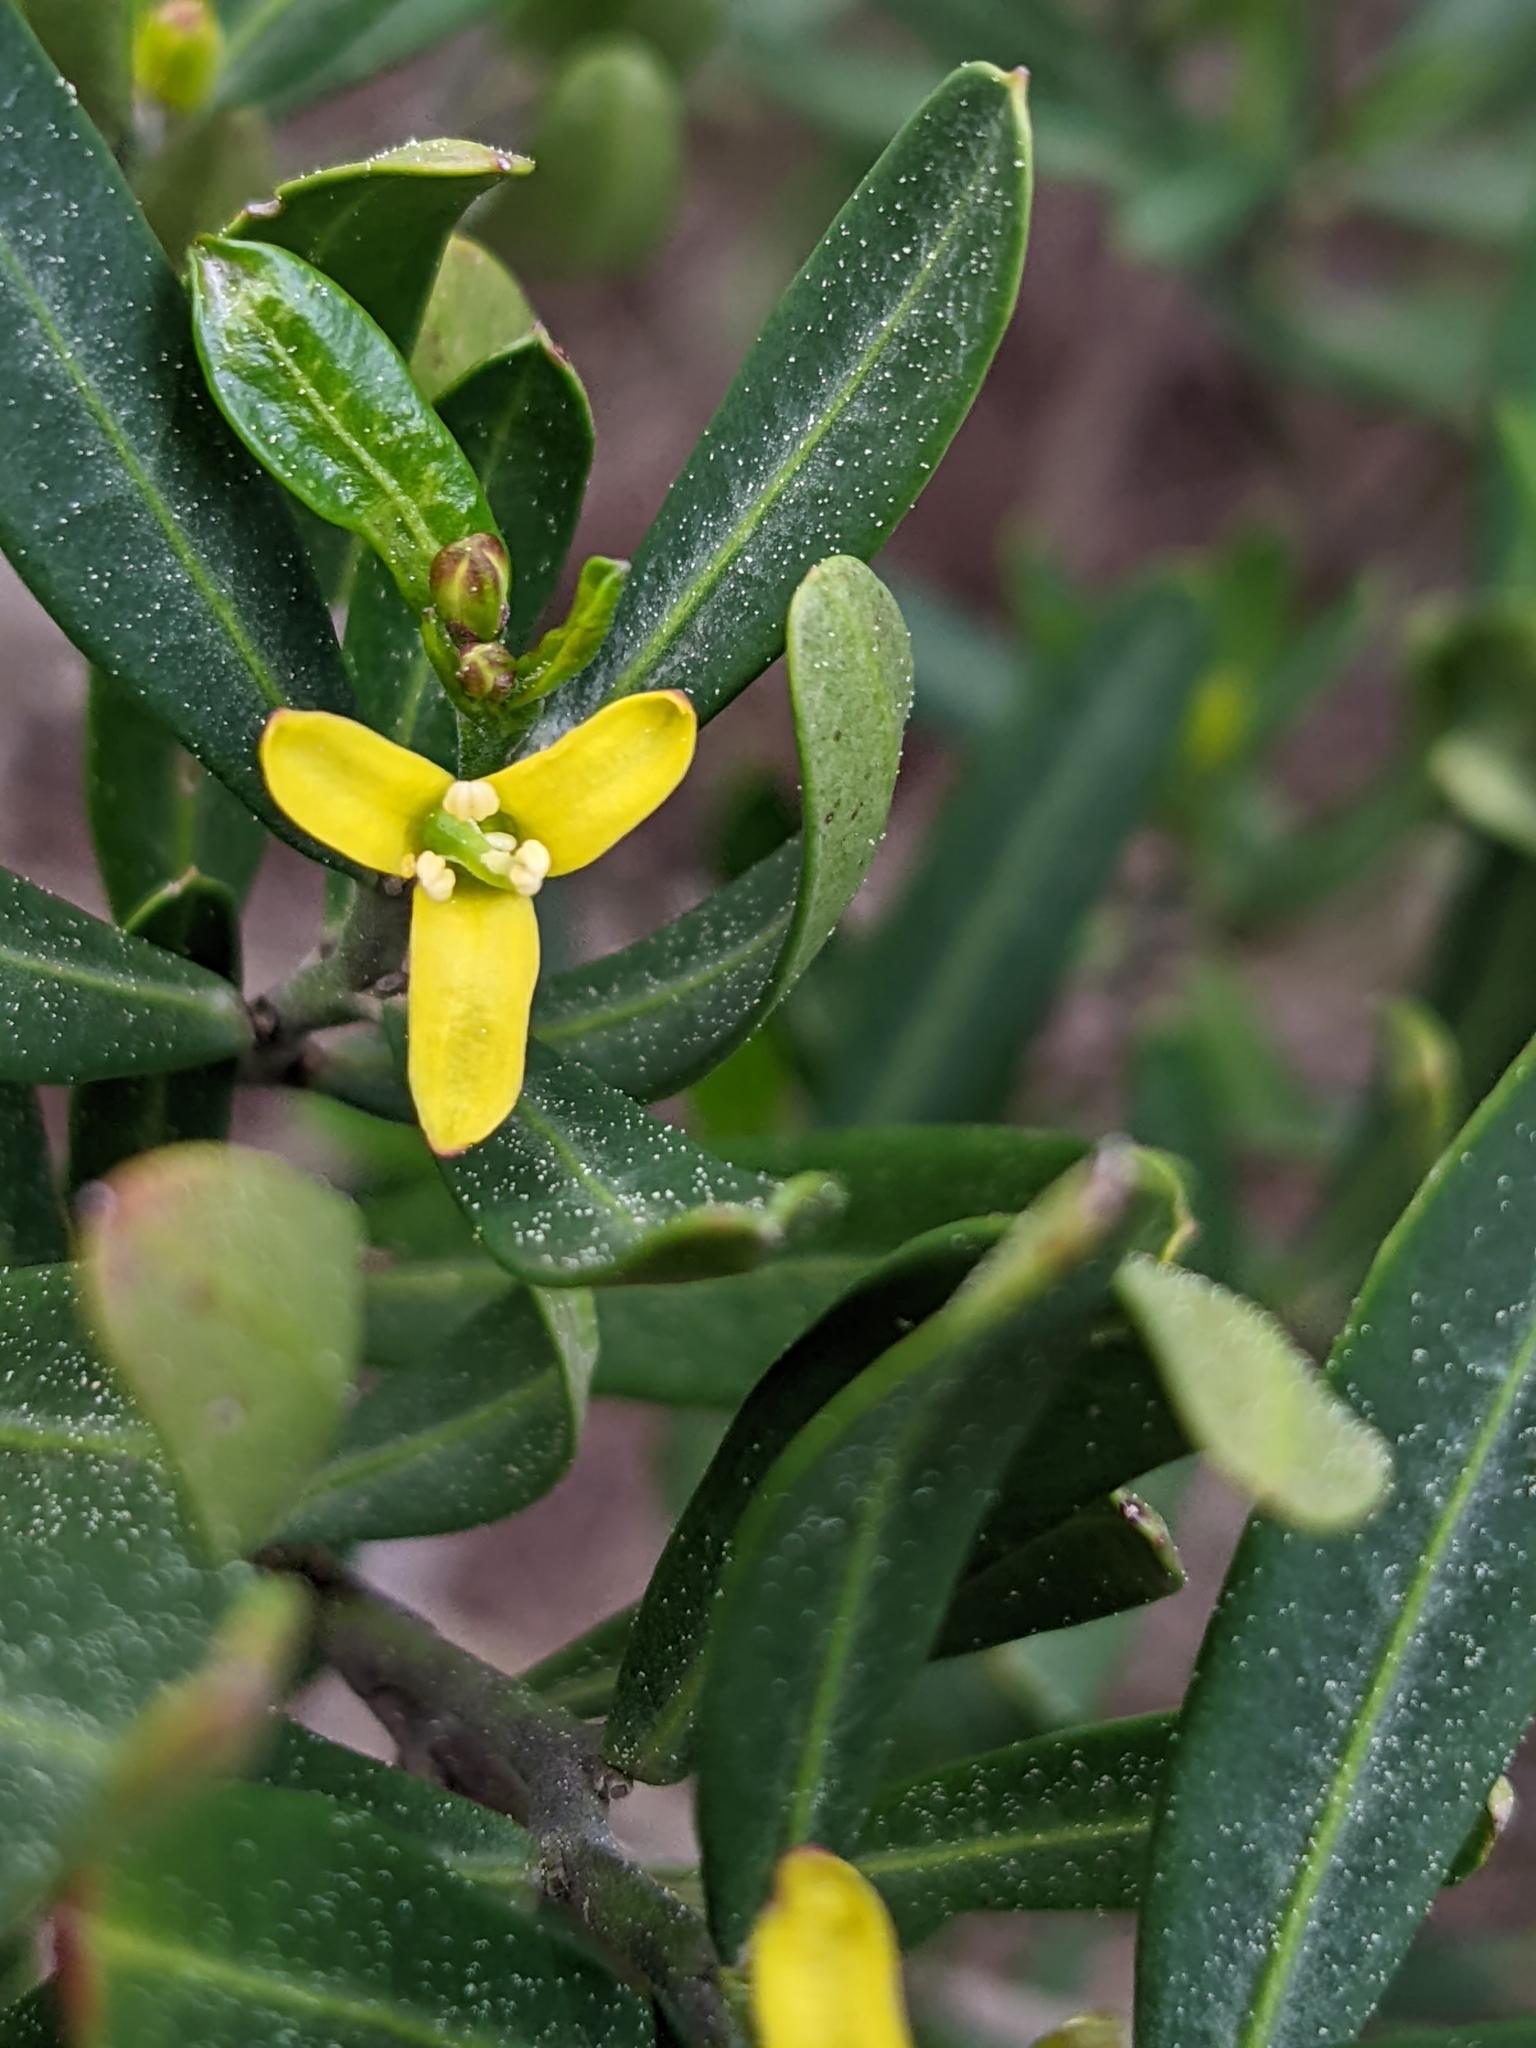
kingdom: Plantae
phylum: Tracheophyta
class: Magnoliopsida
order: Sapindales
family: Rutaceae
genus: Cneorum
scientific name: Cneorum tricoccon
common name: Spurge olive
